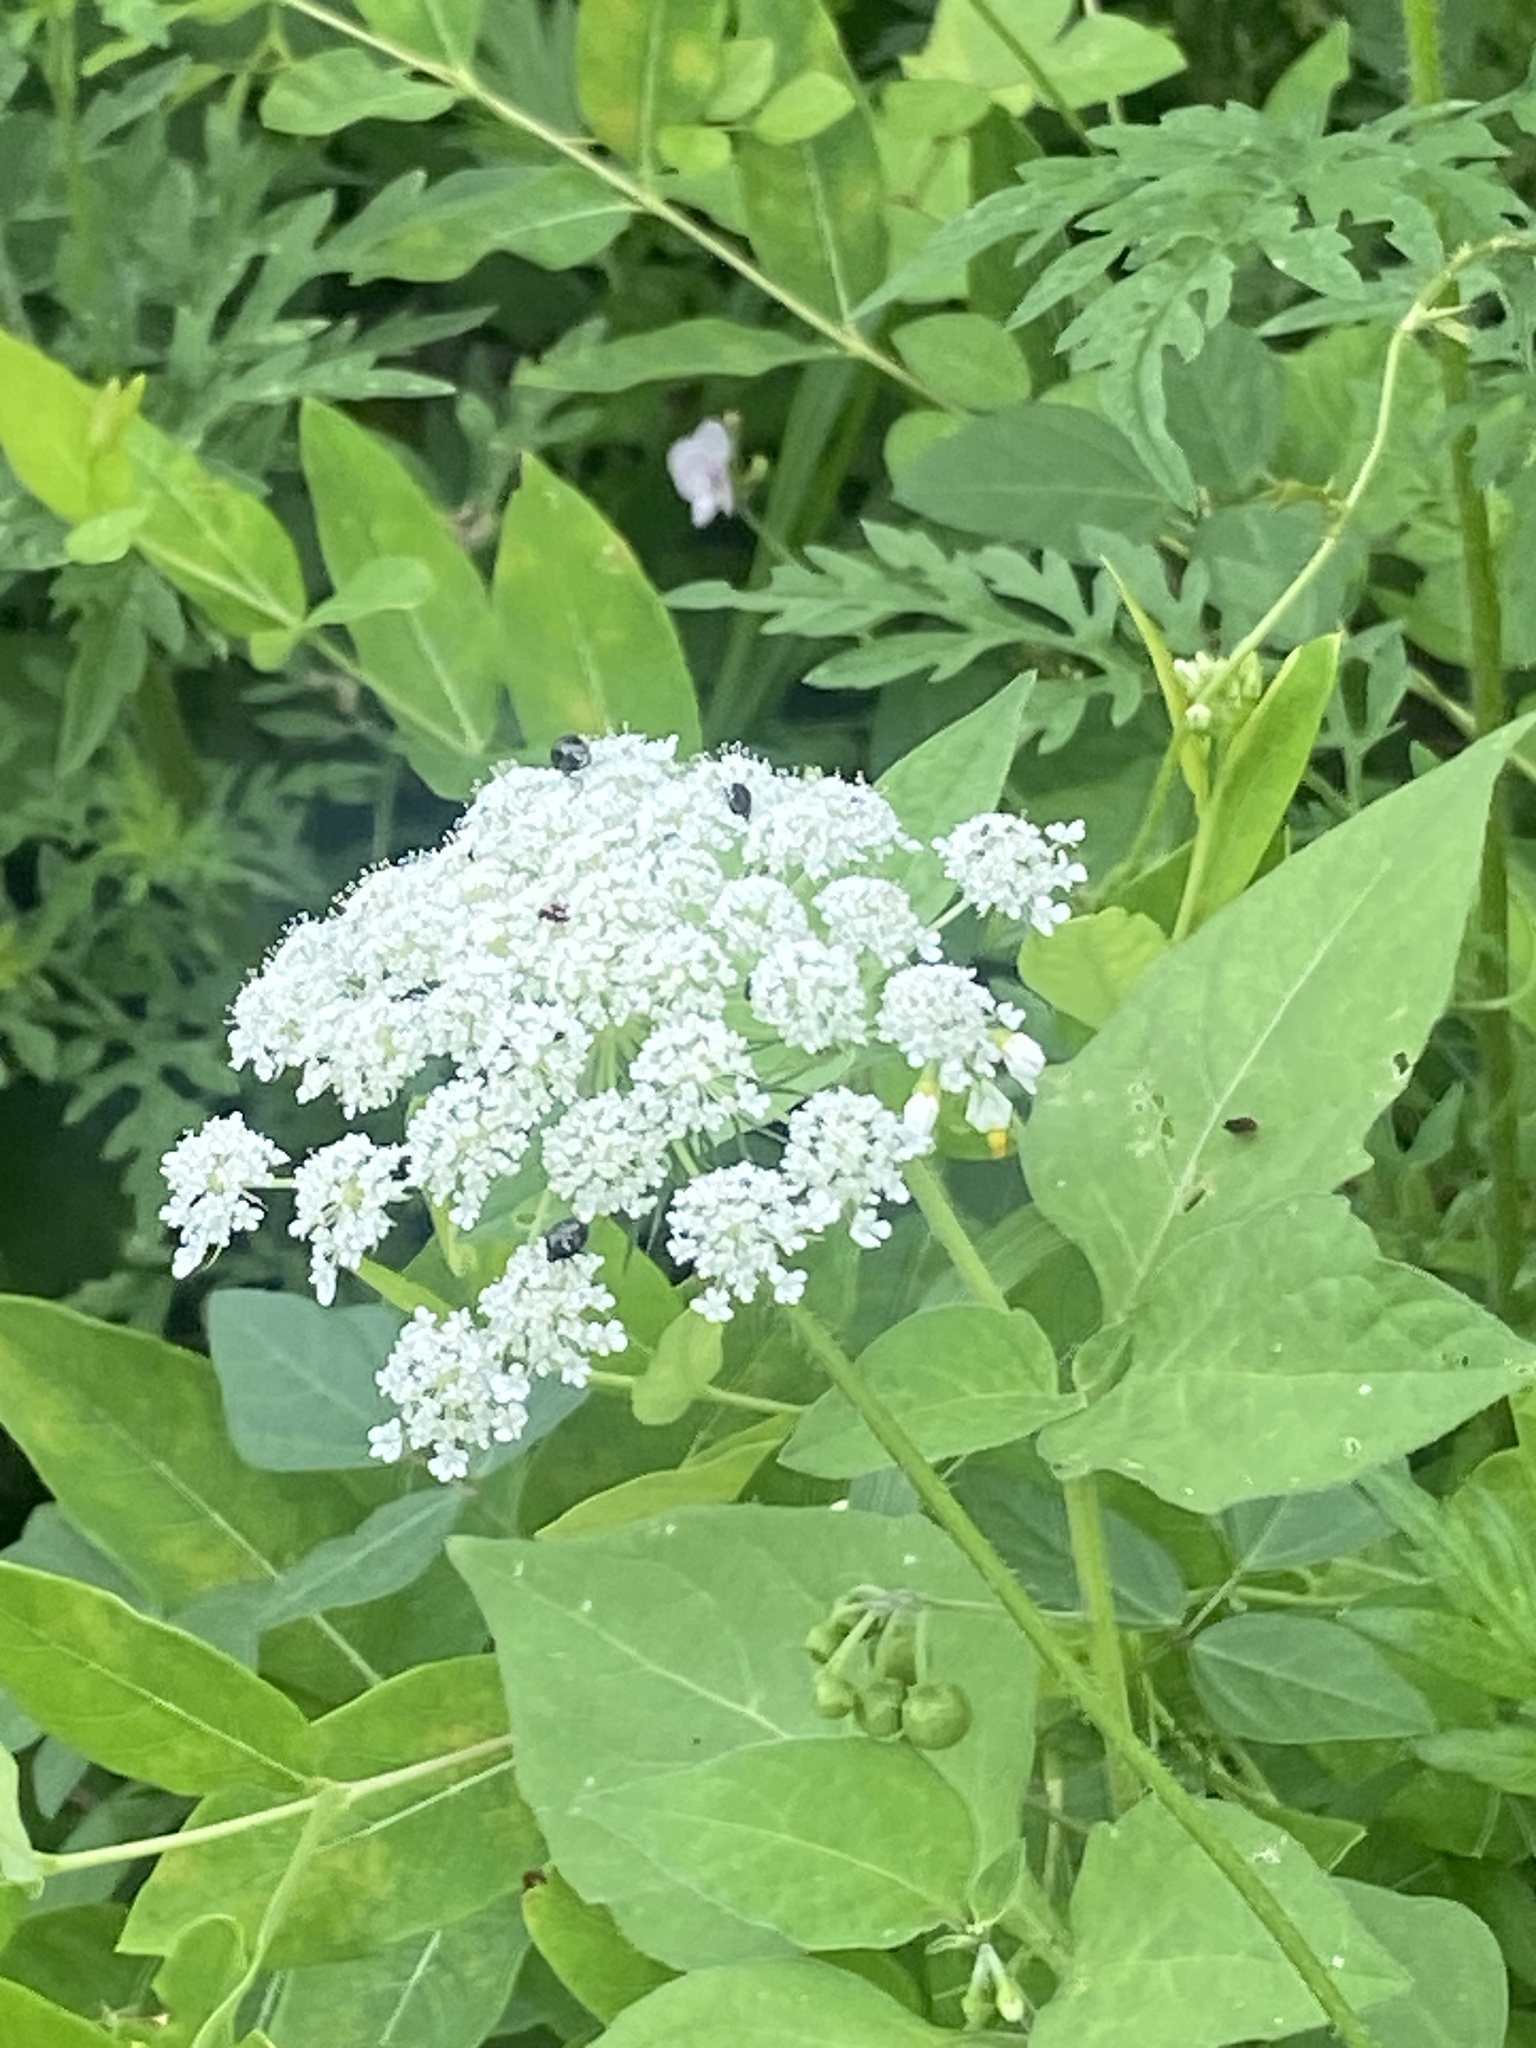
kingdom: Plantae
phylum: Tracheophyta
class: Magnoliopsida
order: Apiales
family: Apiaceae
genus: Daucus
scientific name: Daucus carota
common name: Wild carrot
